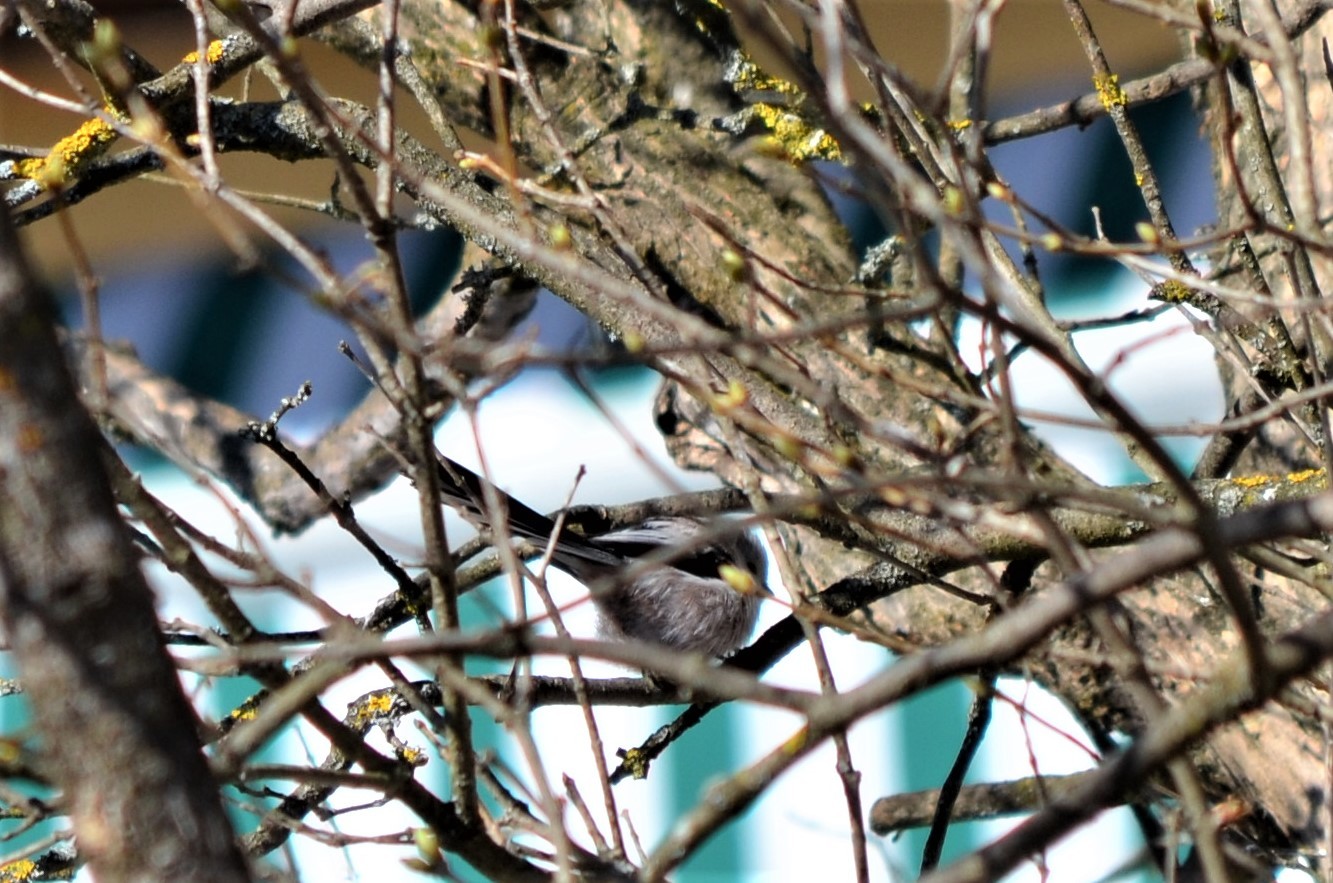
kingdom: Animalia
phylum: Chordata
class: Aves
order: Passeriformes
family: Aegithalidae
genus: Aegithalos
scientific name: Aegithalos caudatus
